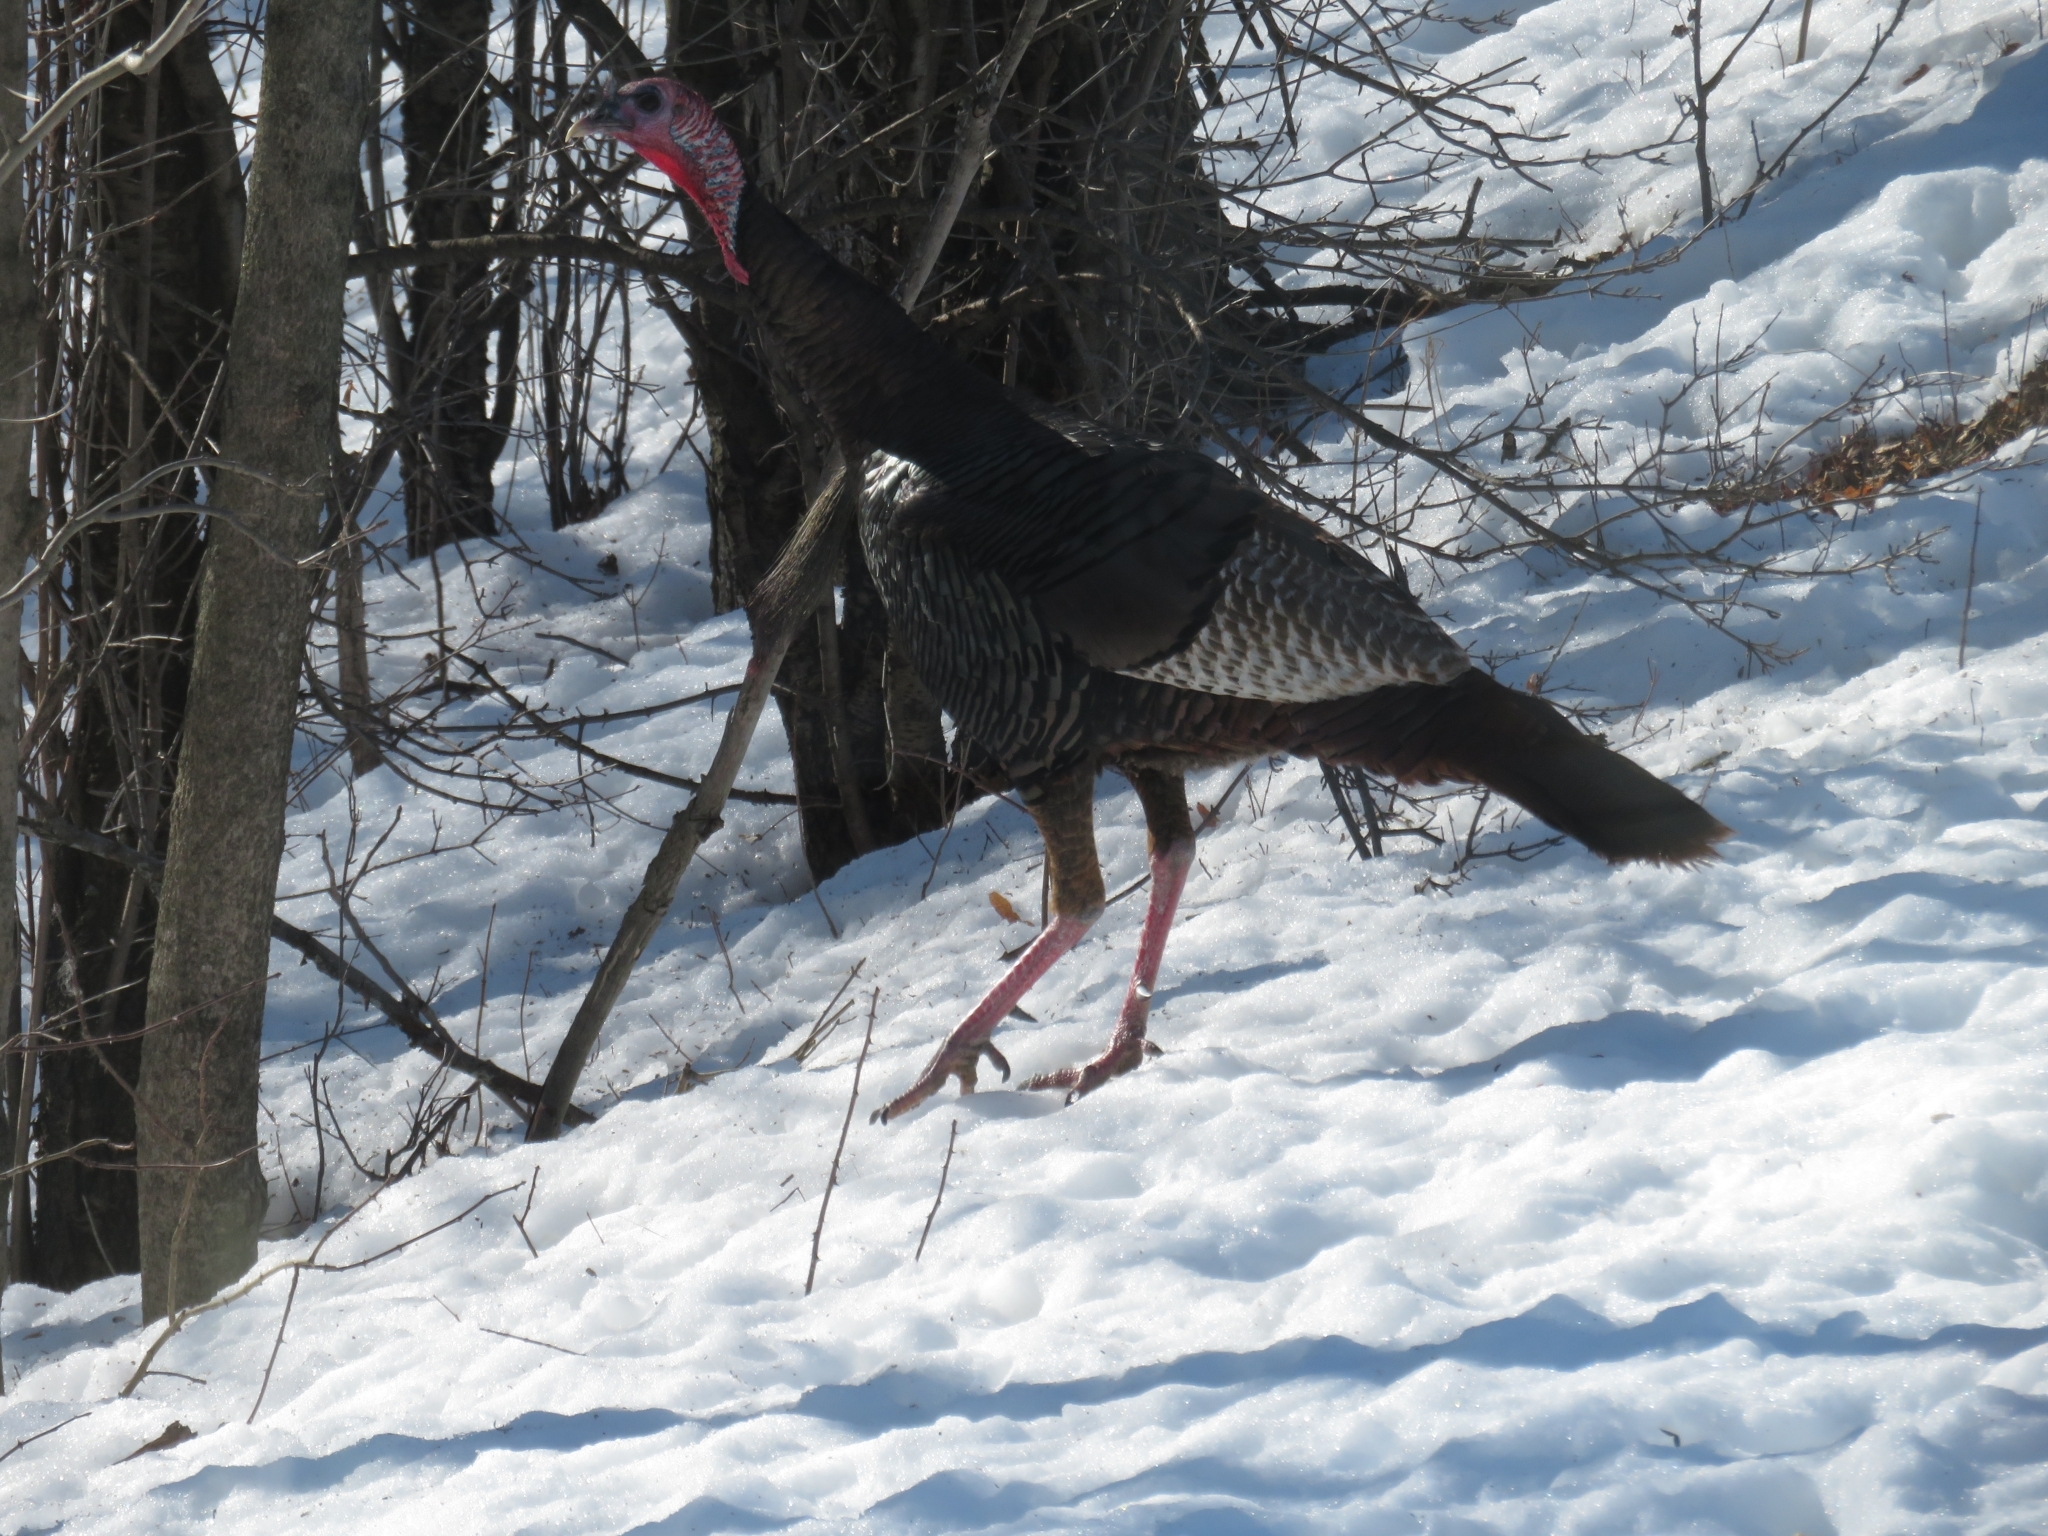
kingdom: Animalia
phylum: Chordata
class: Aves
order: Galliformes
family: Phasianidae
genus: Meleagris
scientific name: Meleagris gallopavo
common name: Wild turkey
